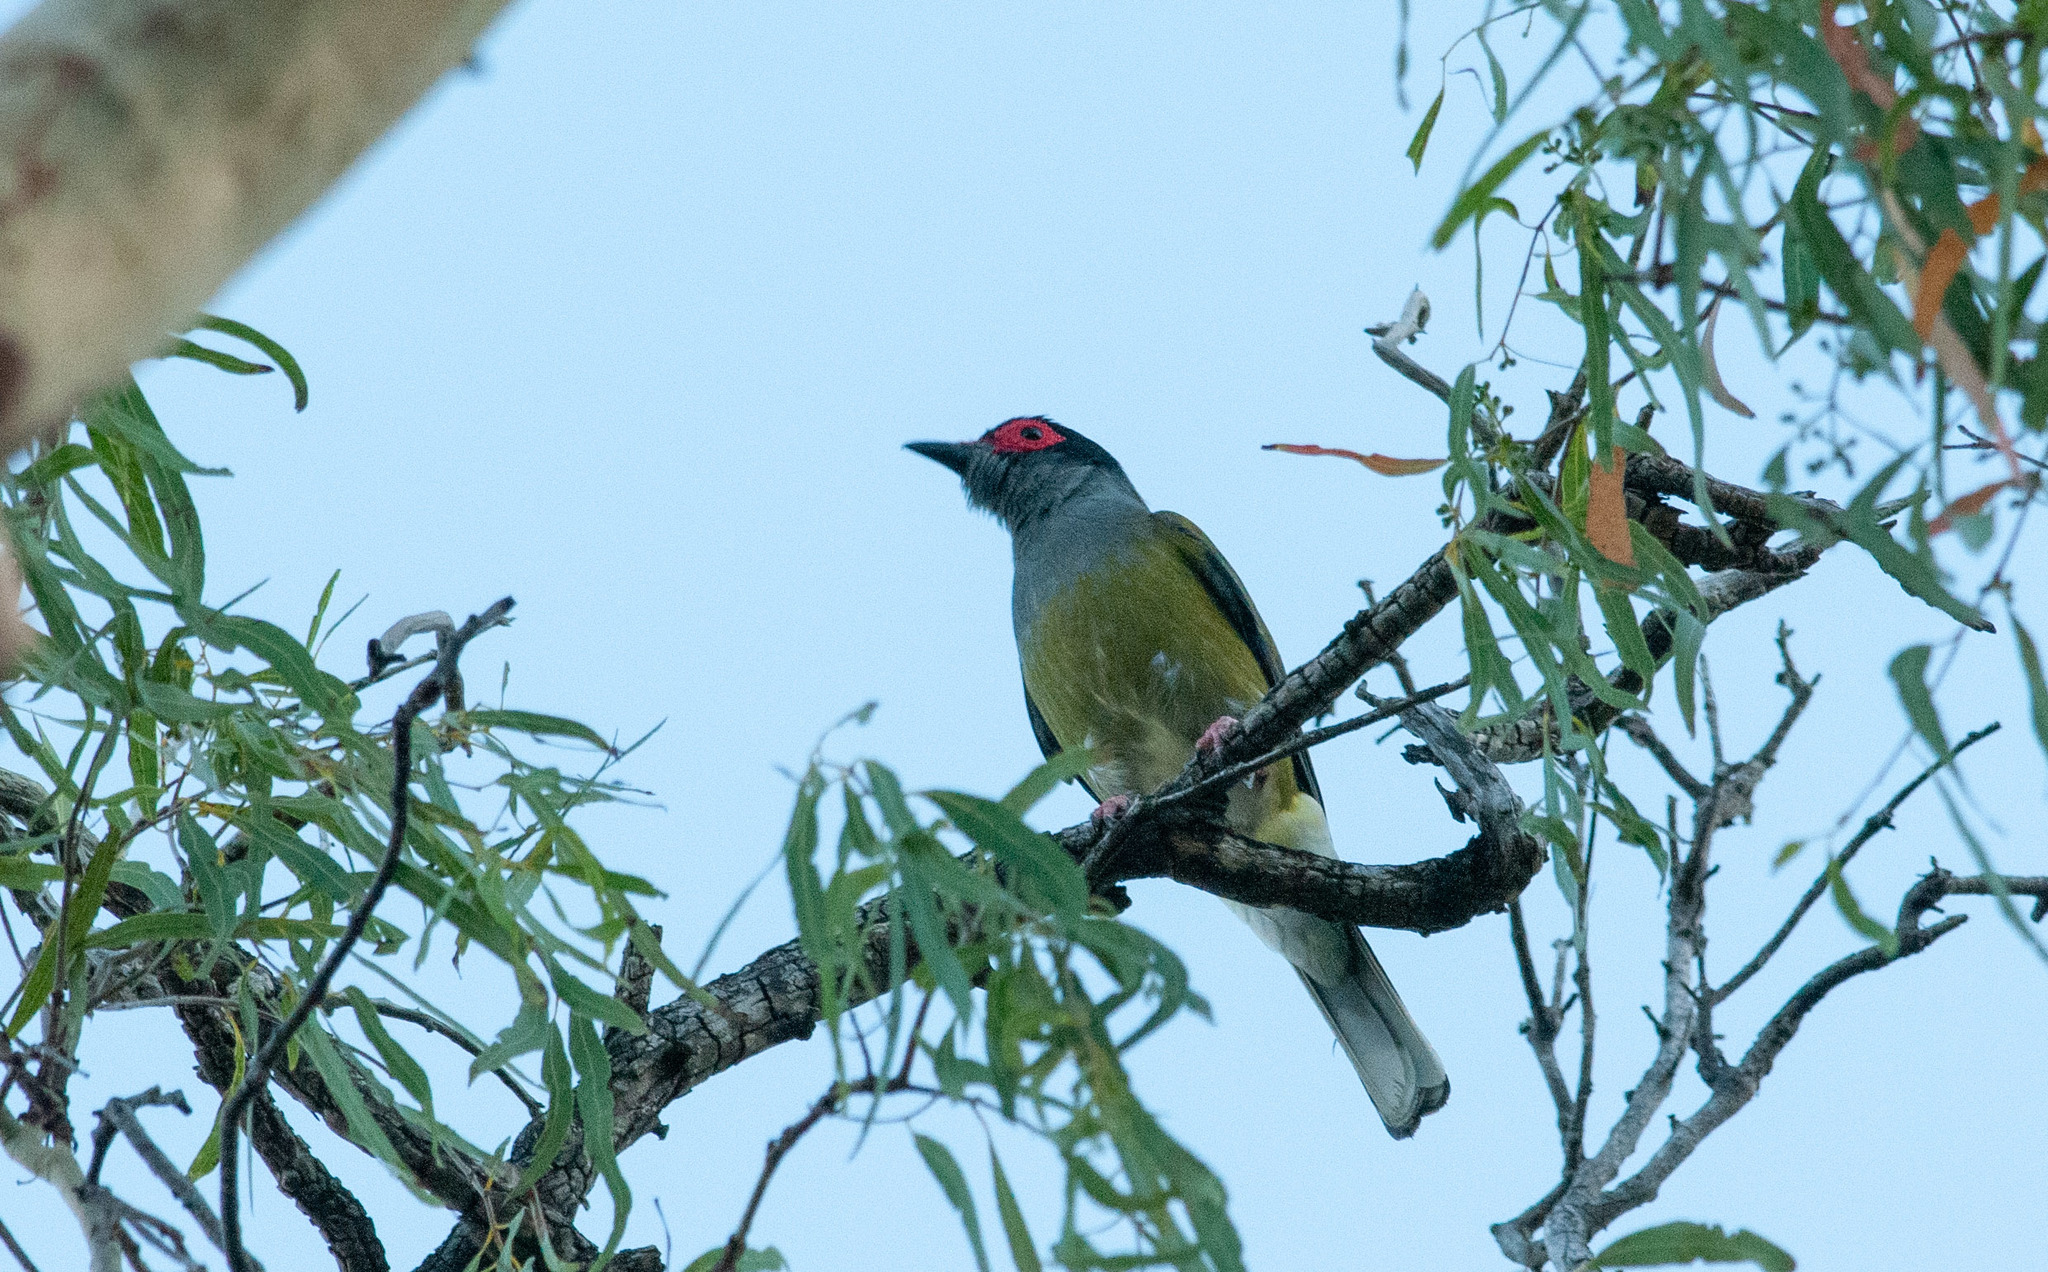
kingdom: Animalia
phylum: Chordata
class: Aves
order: Passeriformes
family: Oriolidae
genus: Sphecotheres
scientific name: Sphecotheres vieilloti
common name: Australasian figbird
